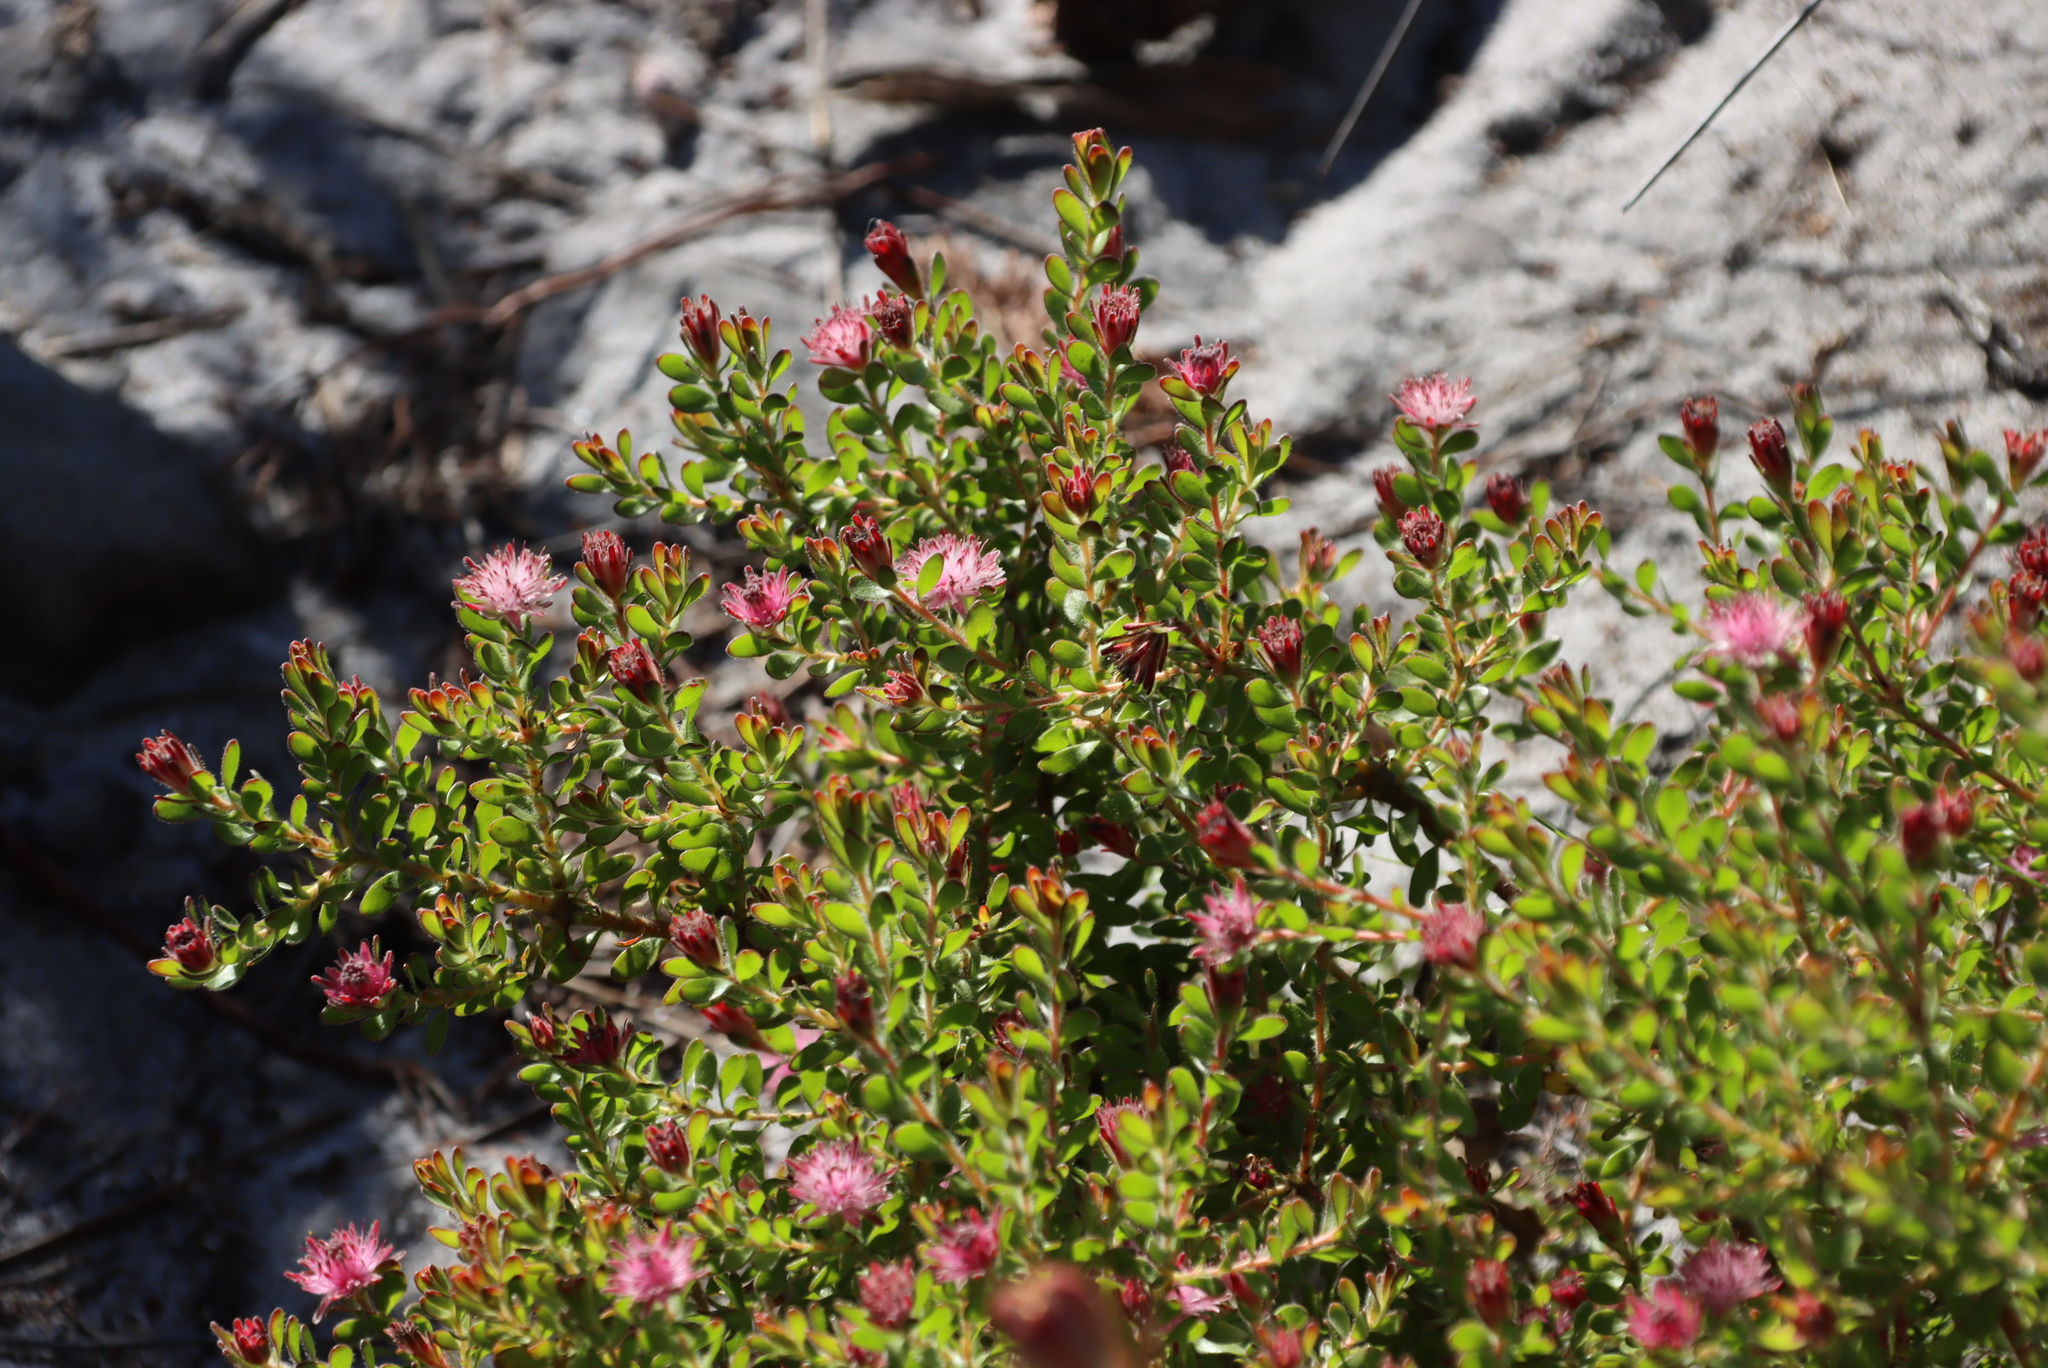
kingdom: Plantae
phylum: Tracheophyta
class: Magnoliopsida
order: Proteales
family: Proteaceae
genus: Diastella
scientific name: Diastella divaricata
